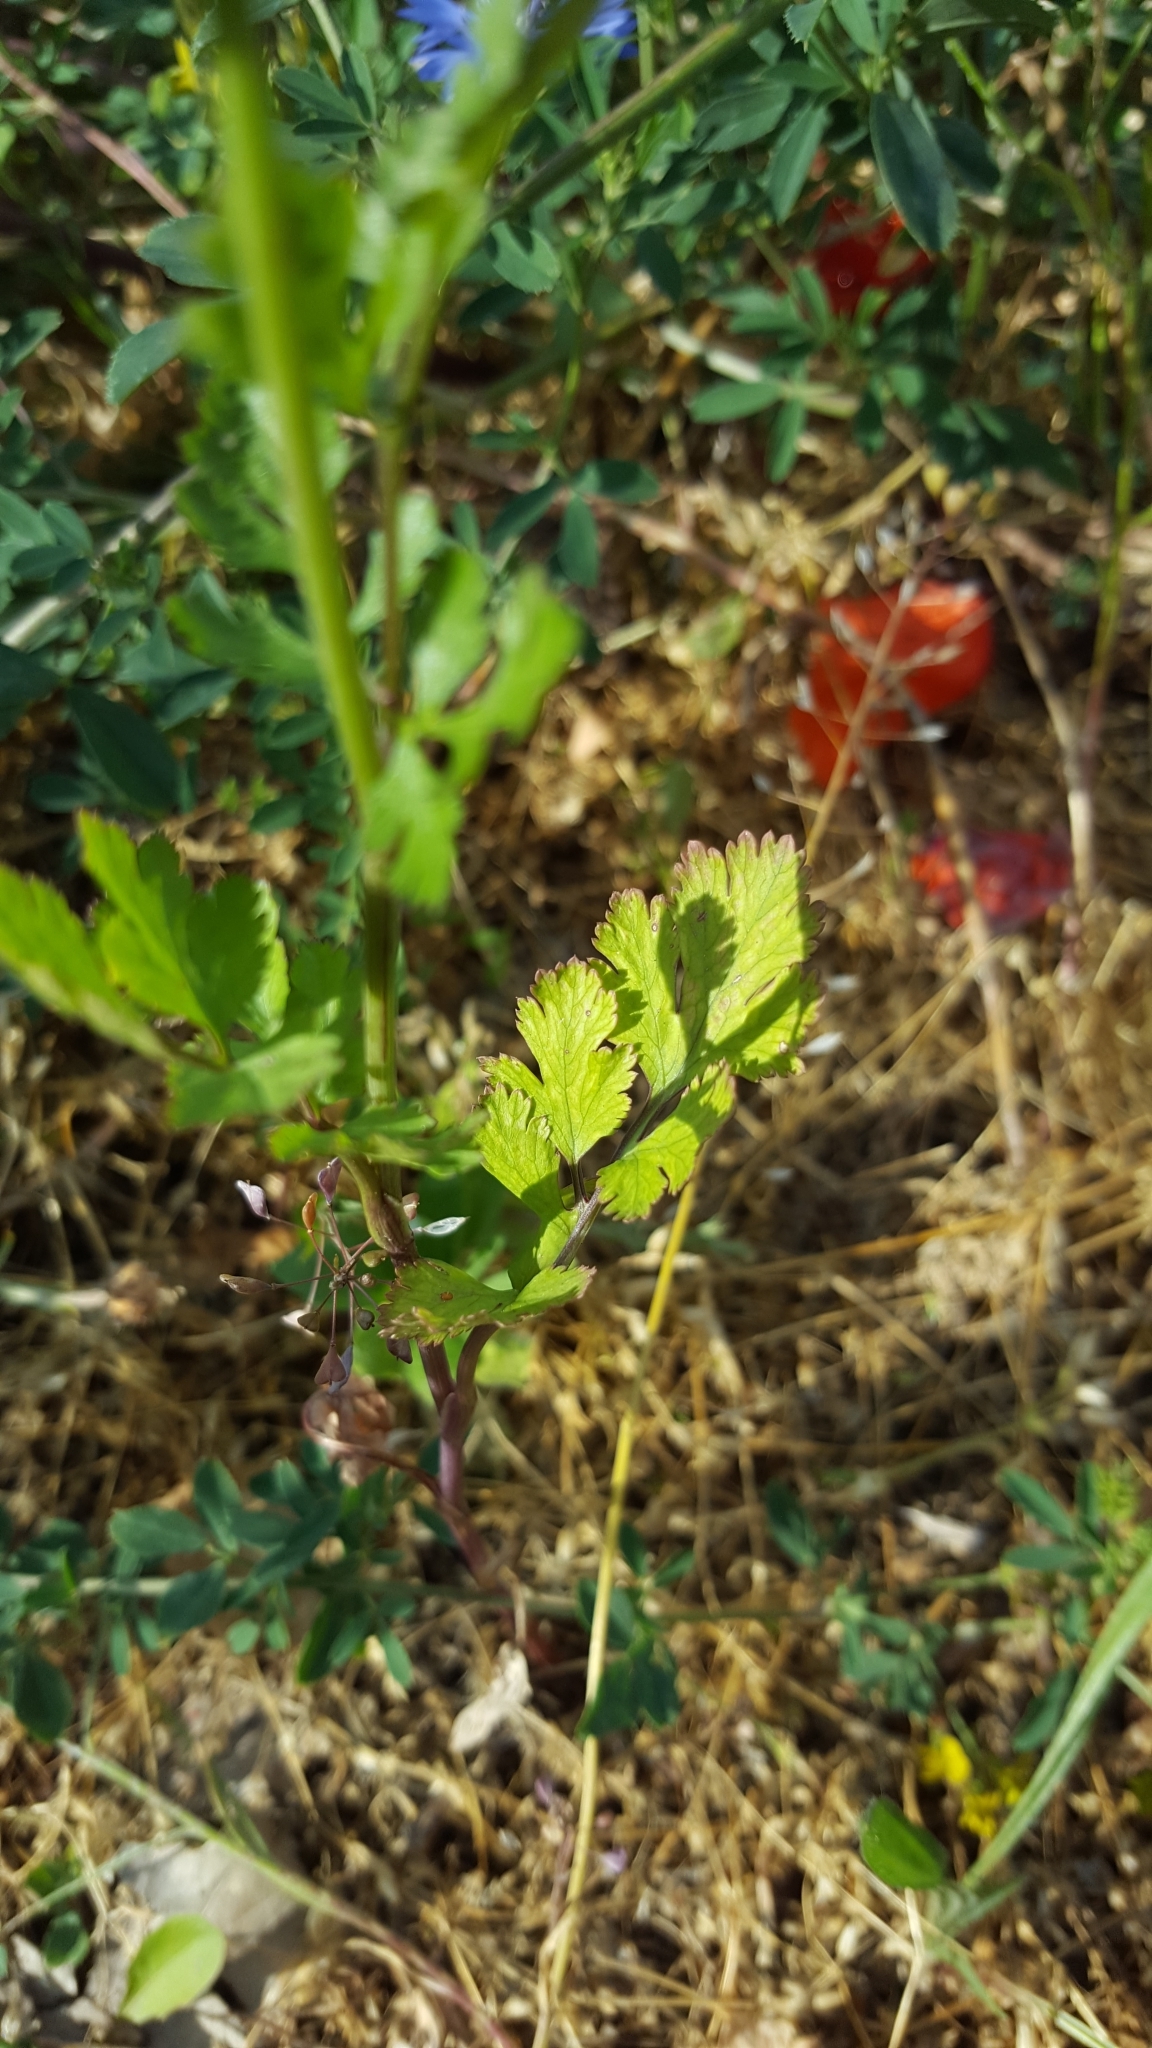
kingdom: Plantae
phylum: Tracheophyta
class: Magnoliopsida
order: Apiales
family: Apiaceae
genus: Coriandrum
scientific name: Coriandrum sativum
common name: Coriander
